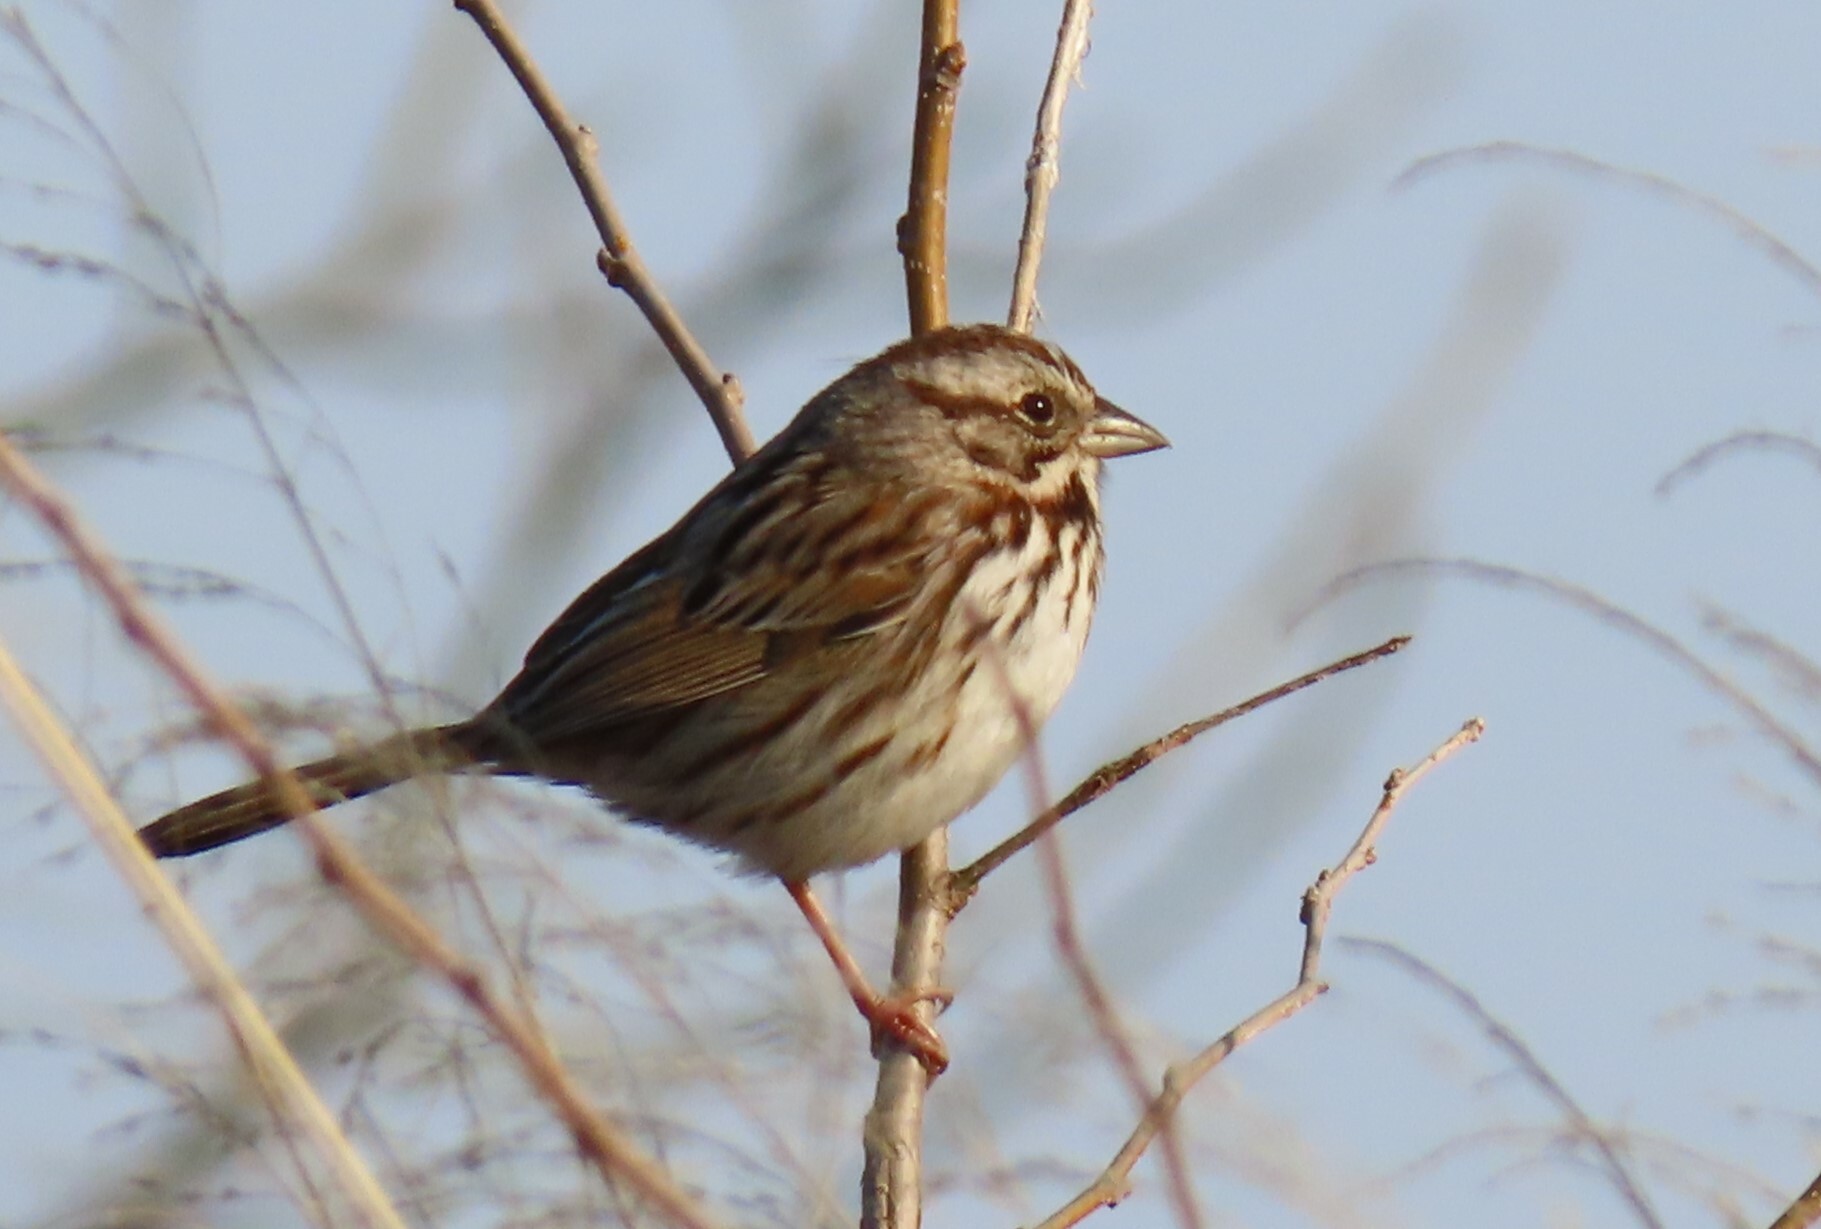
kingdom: Animalia
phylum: Chordata
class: Aves
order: Passeriformes
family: Passerellidae
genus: Melospiza
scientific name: Melospiza melodia
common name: Song sparrow
